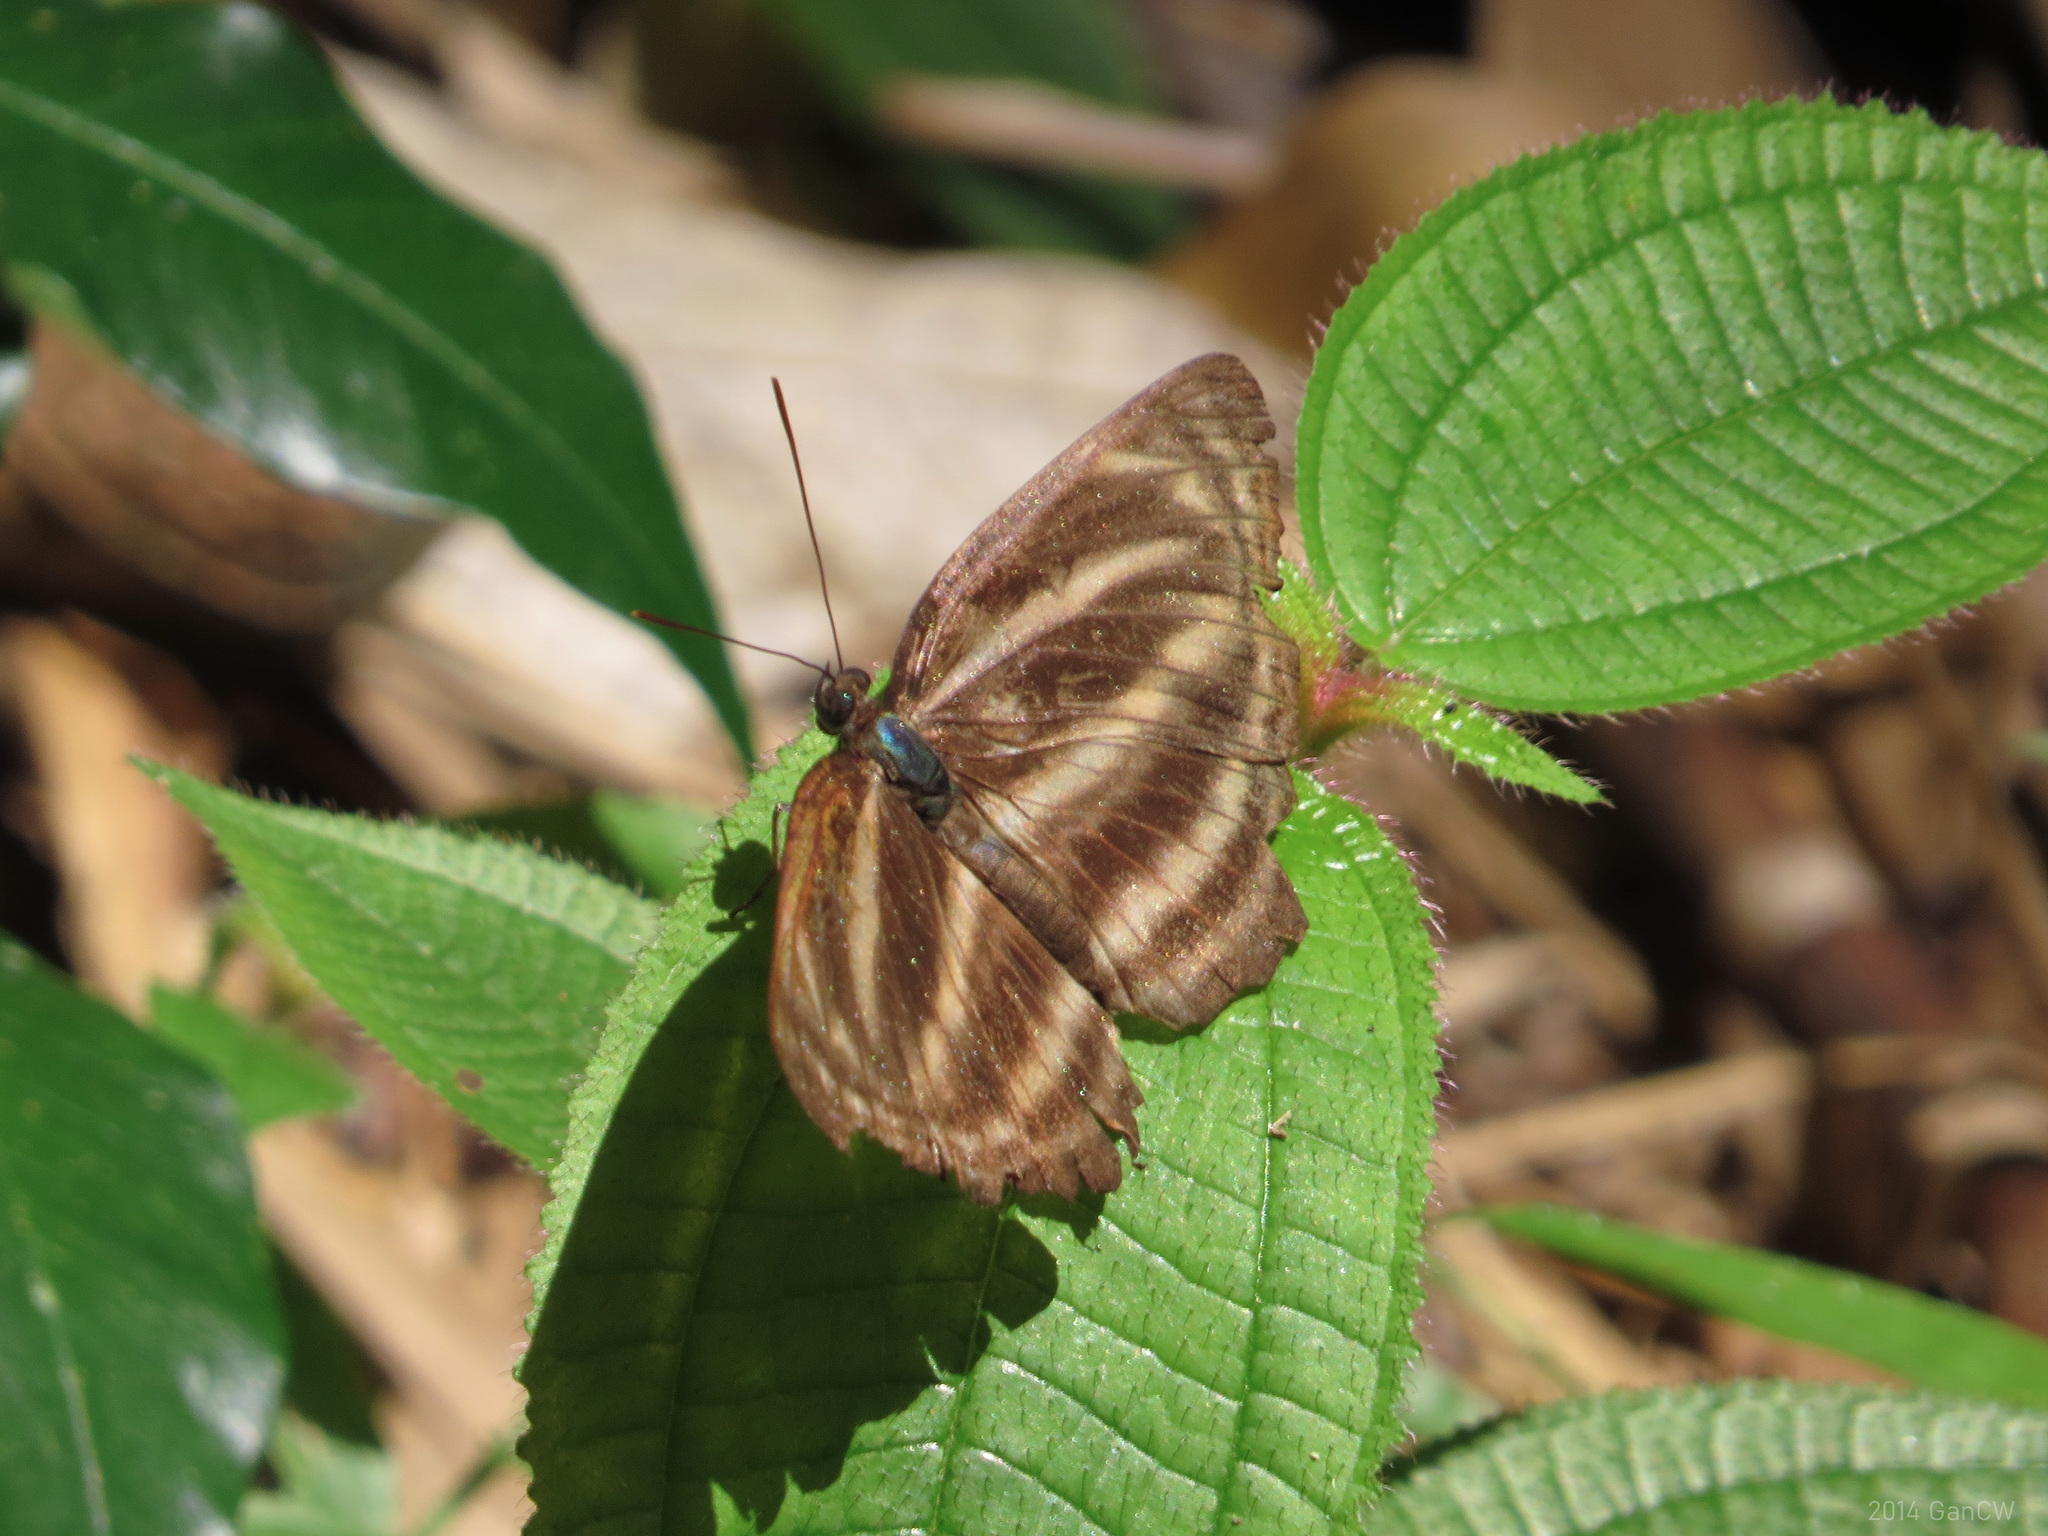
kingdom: Animalia
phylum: Arthropoda
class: Insecta
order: Lepidoptera
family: Nymphalidae
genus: Neptis
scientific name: Neptis harita
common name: Chocolate sailer
